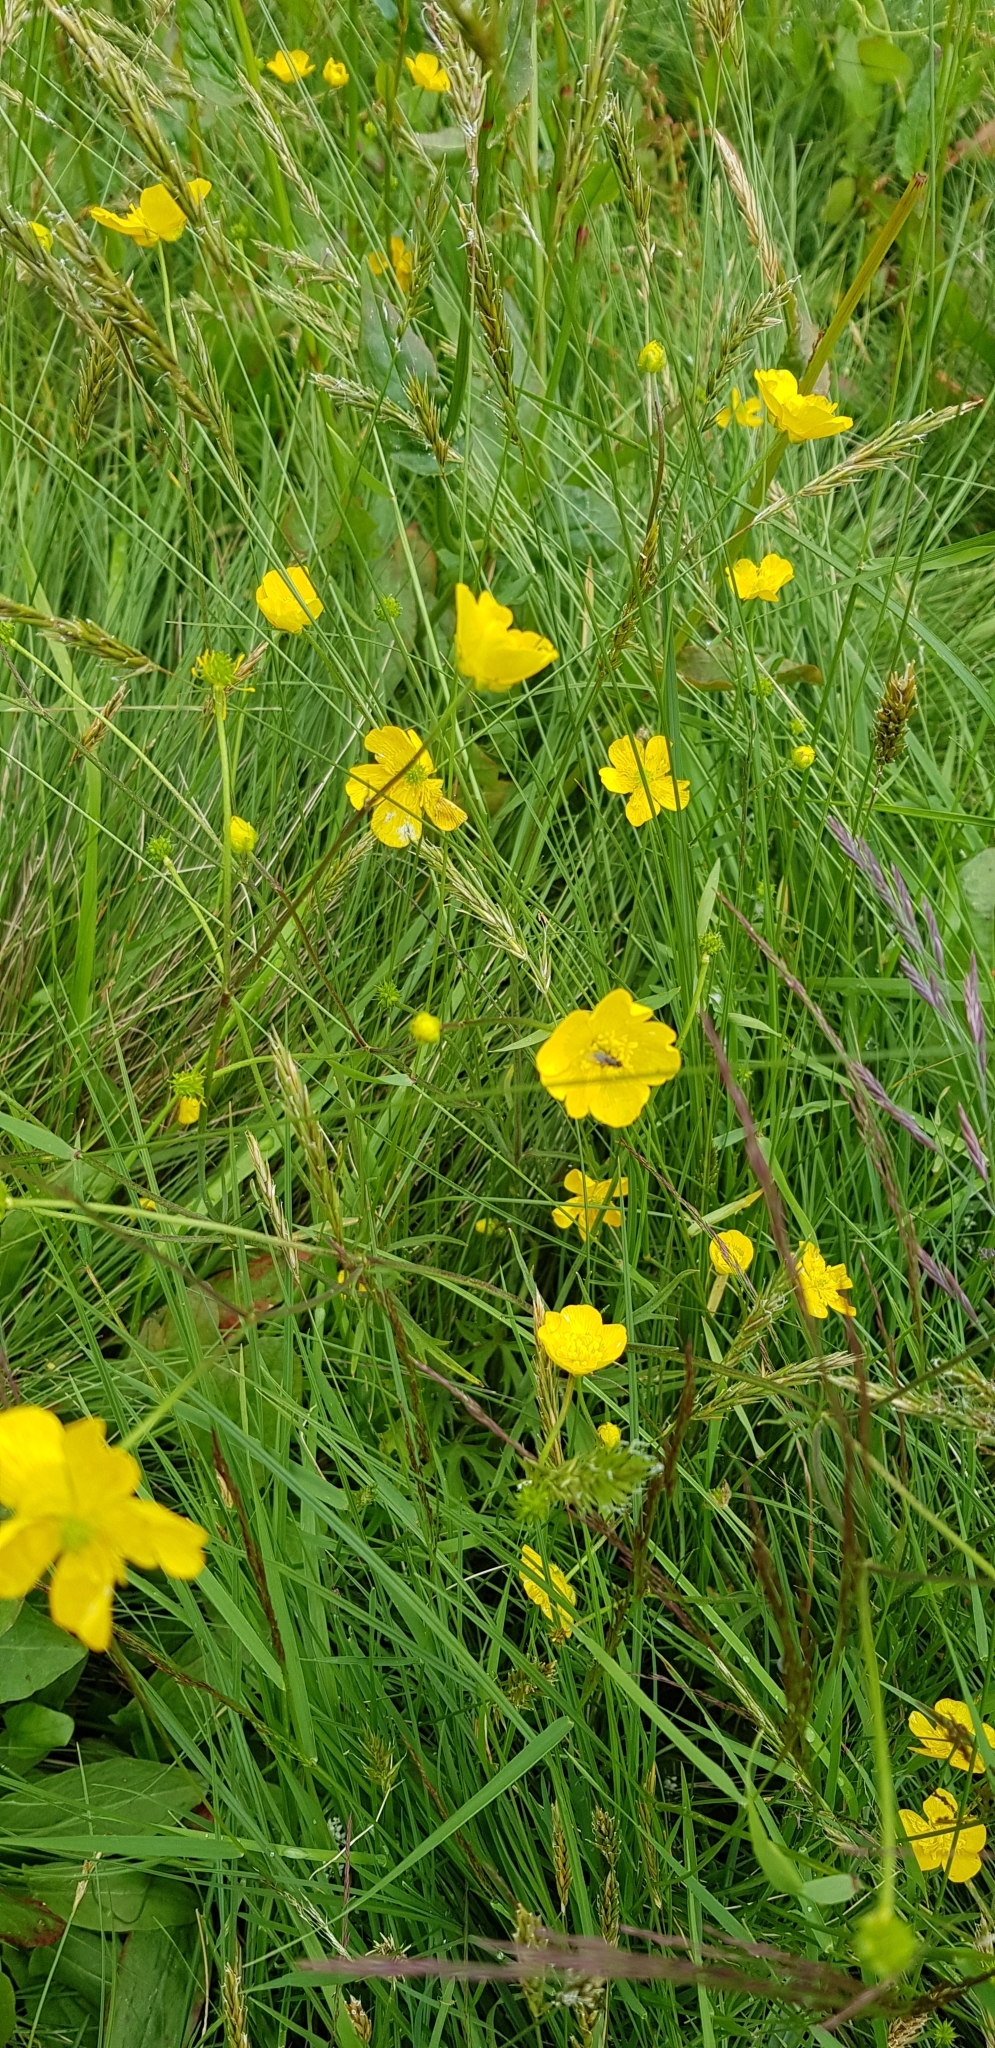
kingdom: Plantae
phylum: Tracheophyta
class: Magnoliopsida
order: Ranunculales
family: Ranunculaceae
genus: Ranunculus
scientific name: Ranunculus acris
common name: Meadow buttercup
